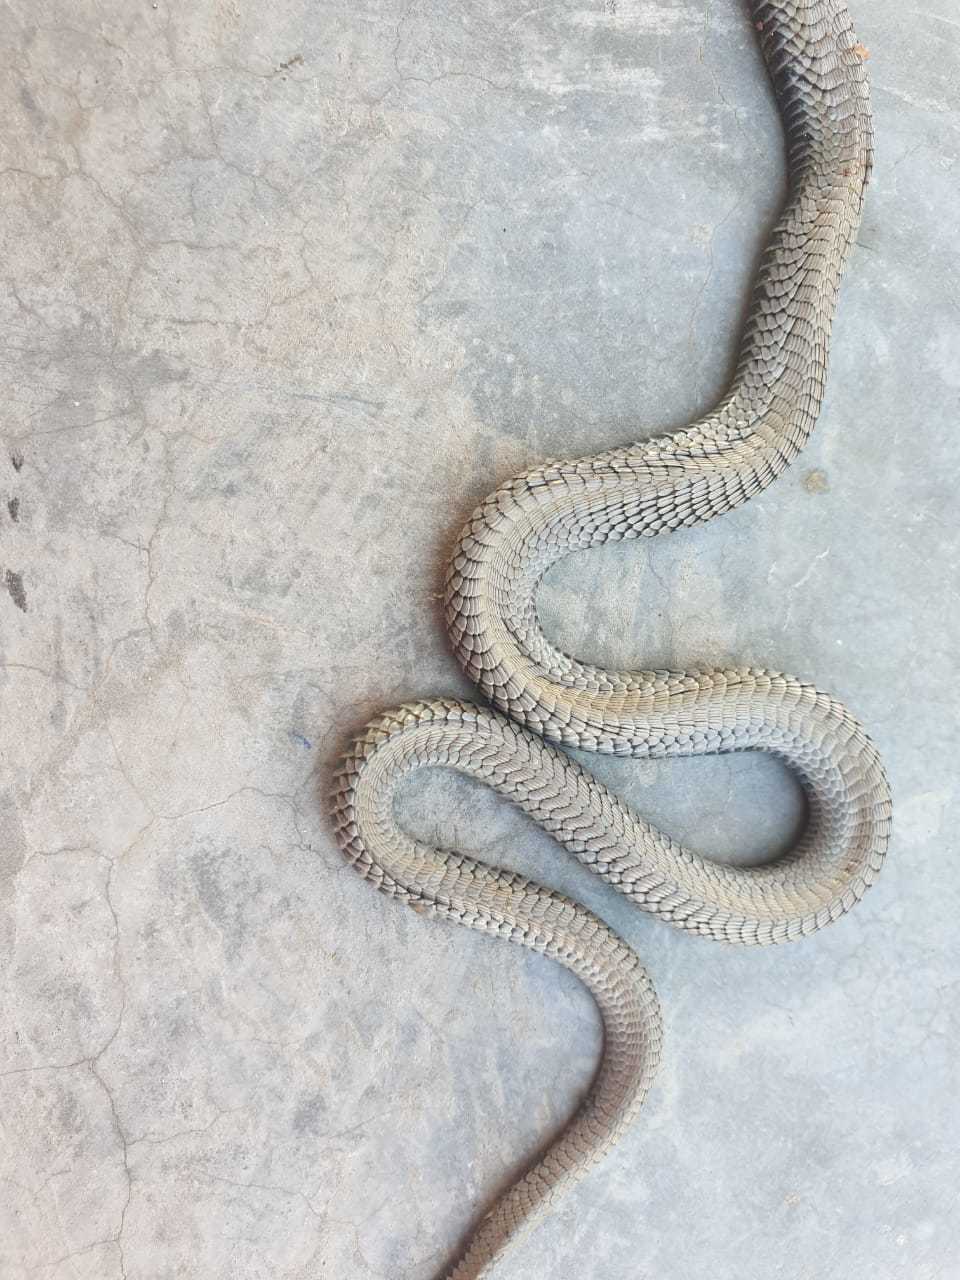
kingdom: Animalia
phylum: Chordata
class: Squamata
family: Elapidae
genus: Naja
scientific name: Naja nigricincta
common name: Black spitting cobra
